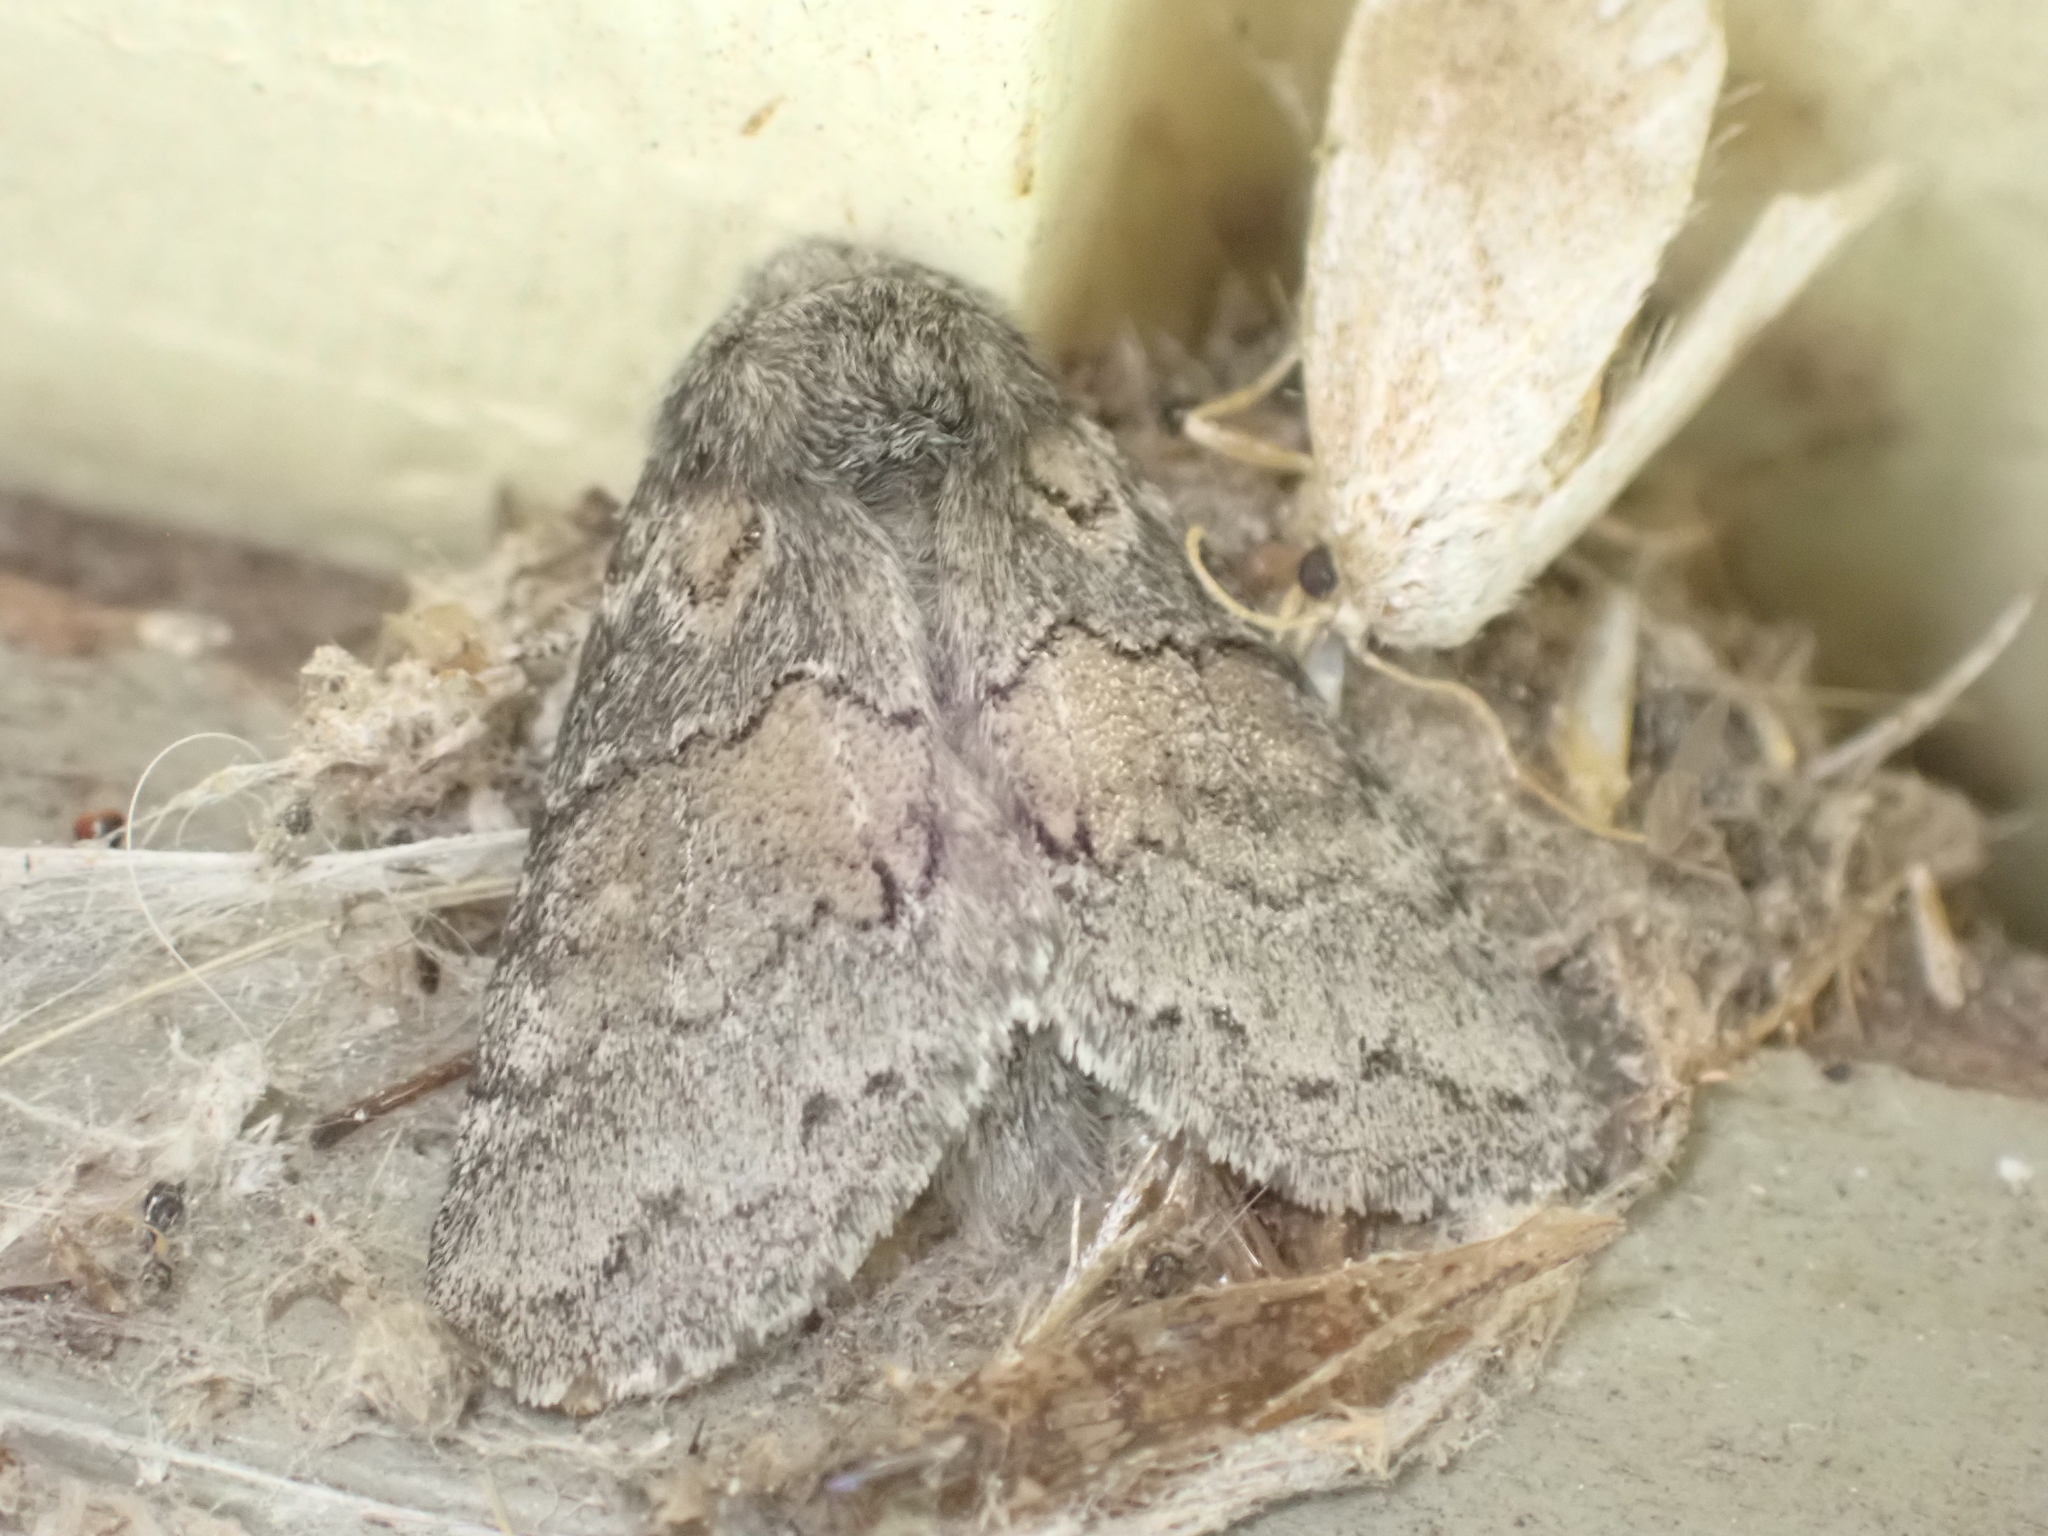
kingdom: Animalia
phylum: Arthropoda
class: Insecta
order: Lepidoptera
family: Notodontidae
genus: Gluphisia
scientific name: Gluphisia septentrionis
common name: Common gluphisia
